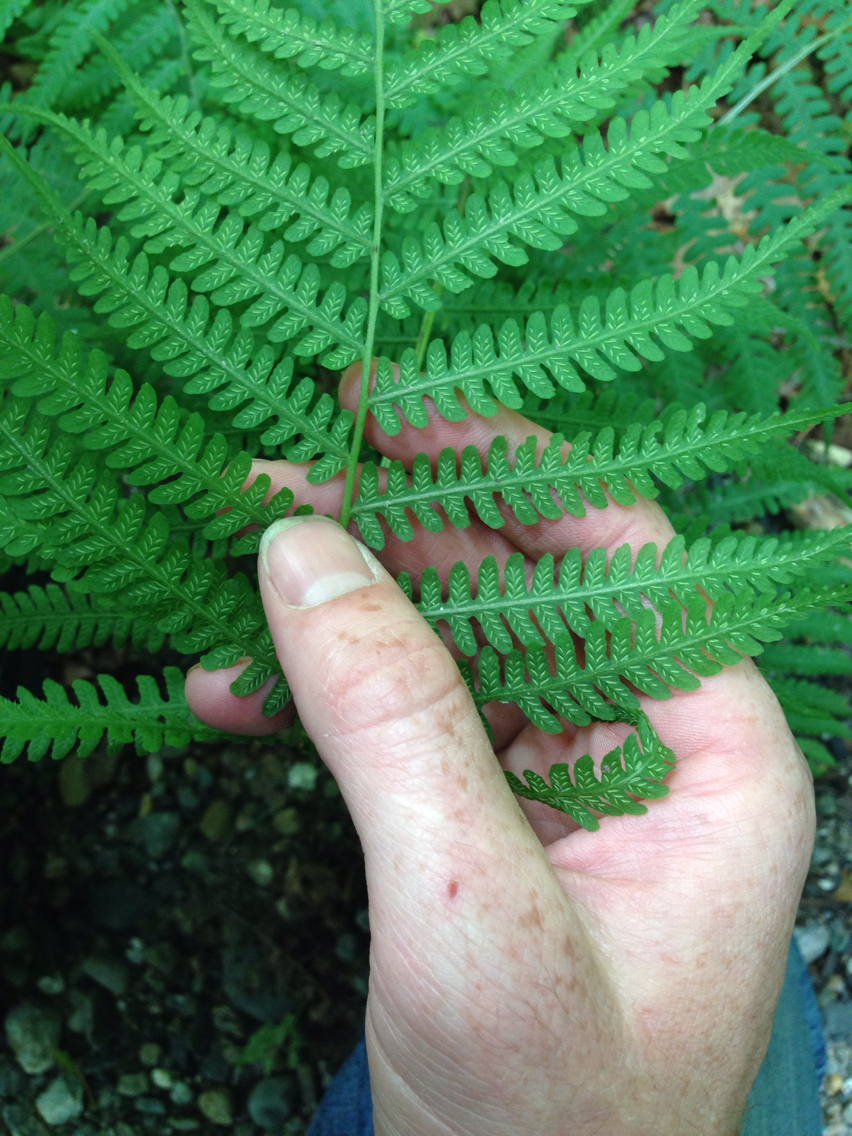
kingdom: Plantae
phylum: Tracheophyta
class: Polypodiopsida
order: Polypodiales
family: Athyriaceae
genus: Deparia
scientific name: Deparia acrostichoides
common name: Silver false spleenwort
